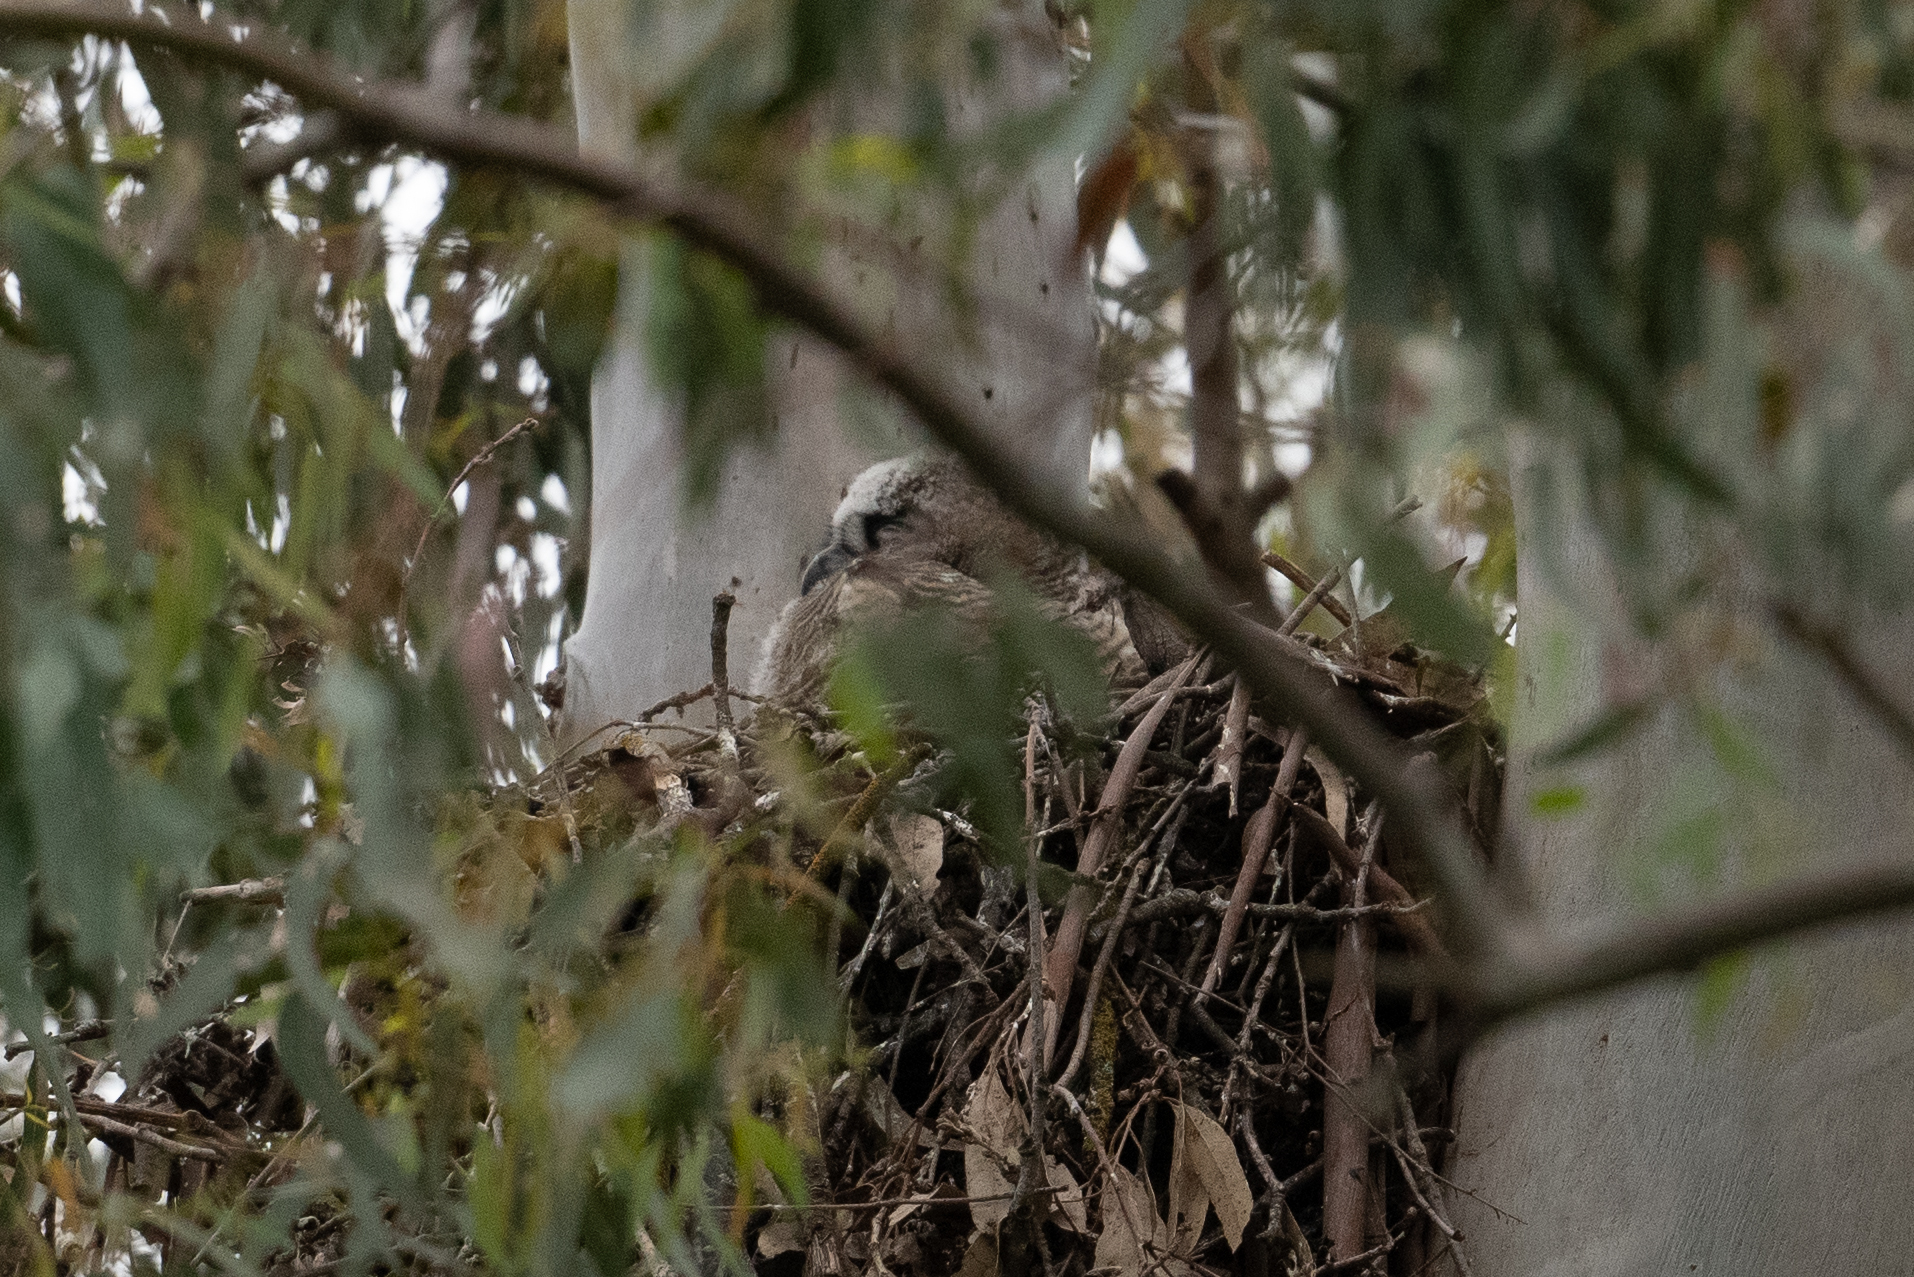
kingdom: Animalia
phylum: Chordata
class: Aves
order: Strigiformes
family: Strigidae
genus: Bubo
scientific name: Bubo virginianus
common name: Great horned owl
